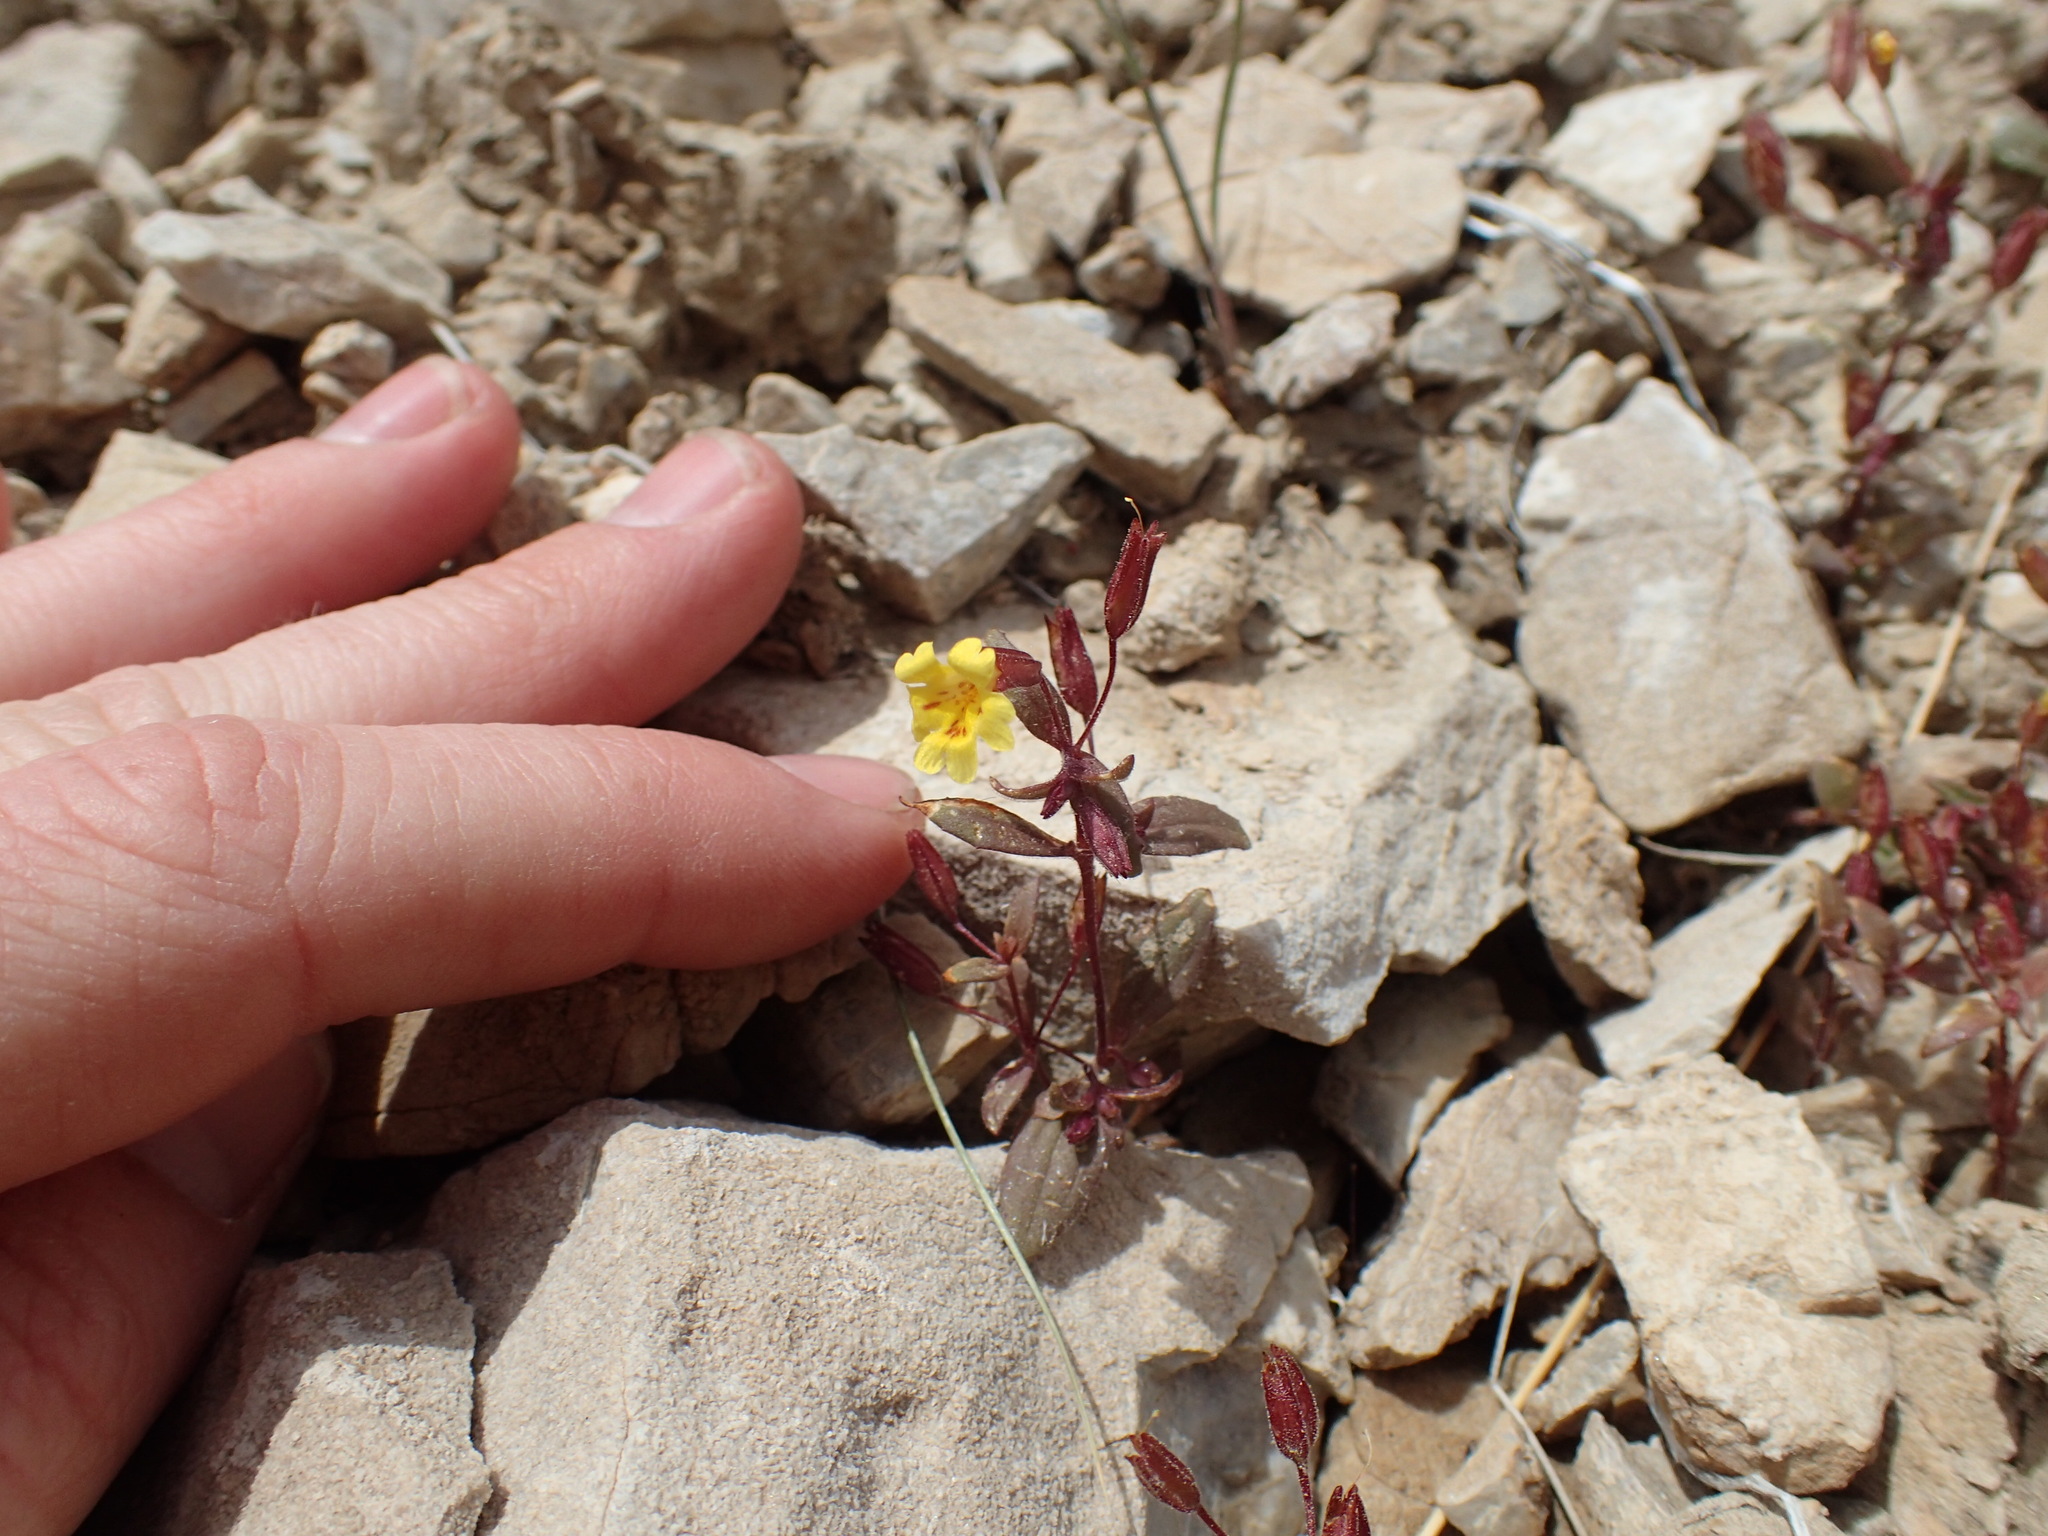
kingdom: Plantae
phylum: Tracheophyta
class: Magnoliopsida
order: Lamiales
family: Phrymaceae
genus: Erythranthe
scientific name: Erythranthe calcicola
